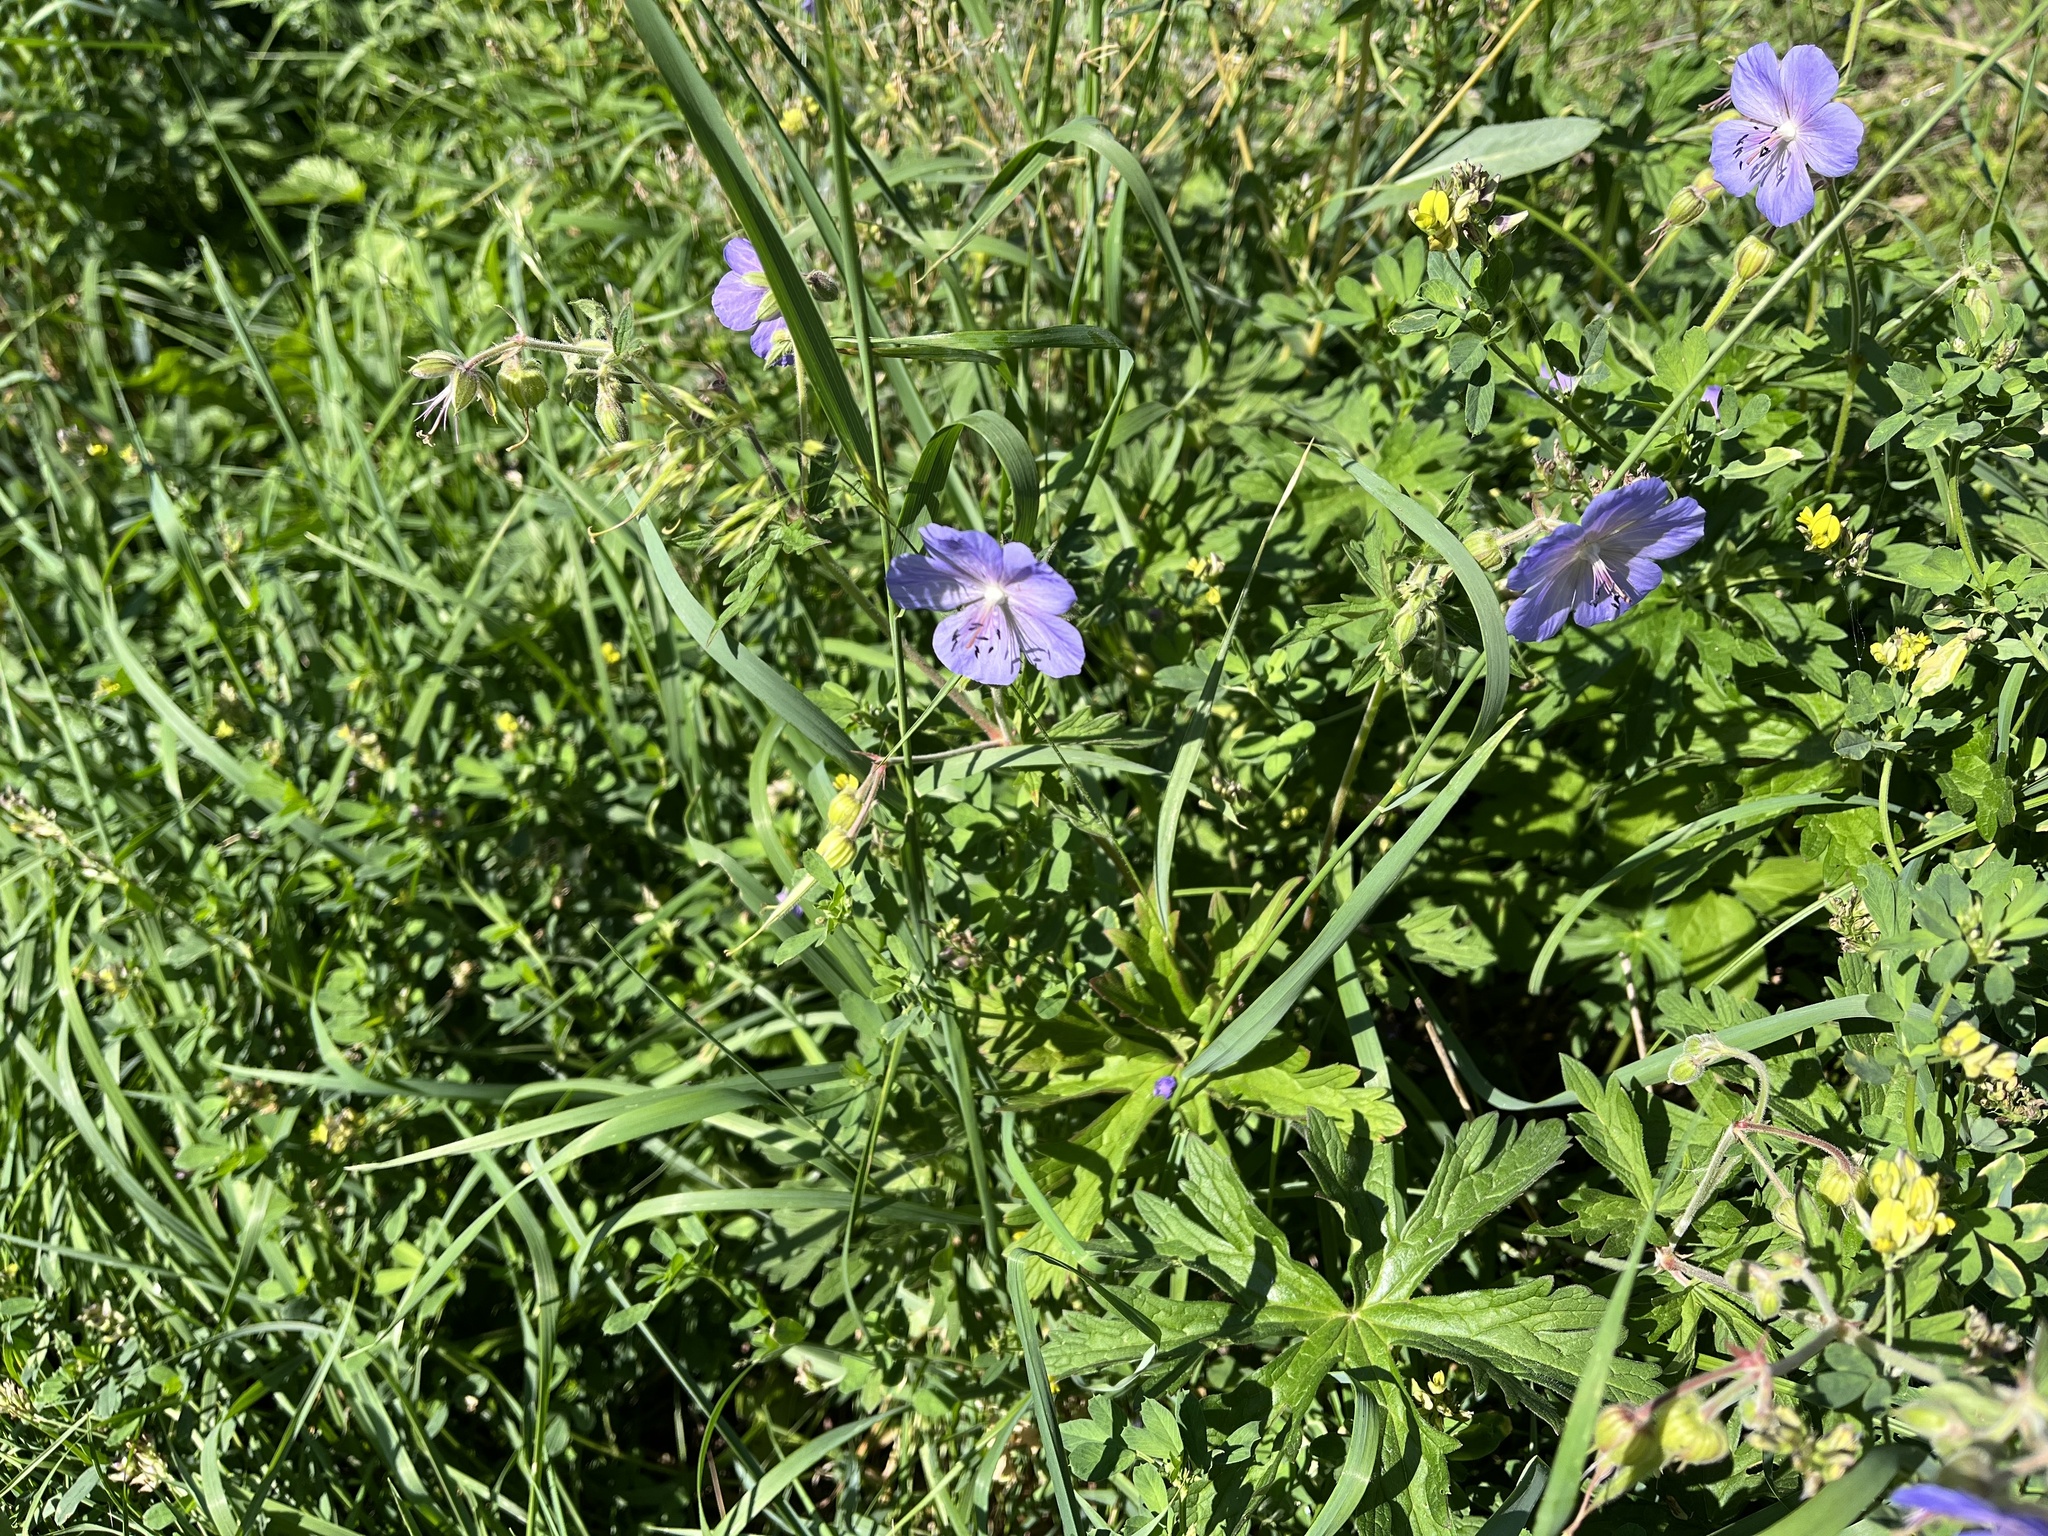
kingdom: Plantae
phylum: Tracheophyta
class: Magnoliopsida
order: Geraniales
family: Geraniaceae
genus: Geranium
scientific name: Geranium pratense
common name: Meadow crane's-bill
